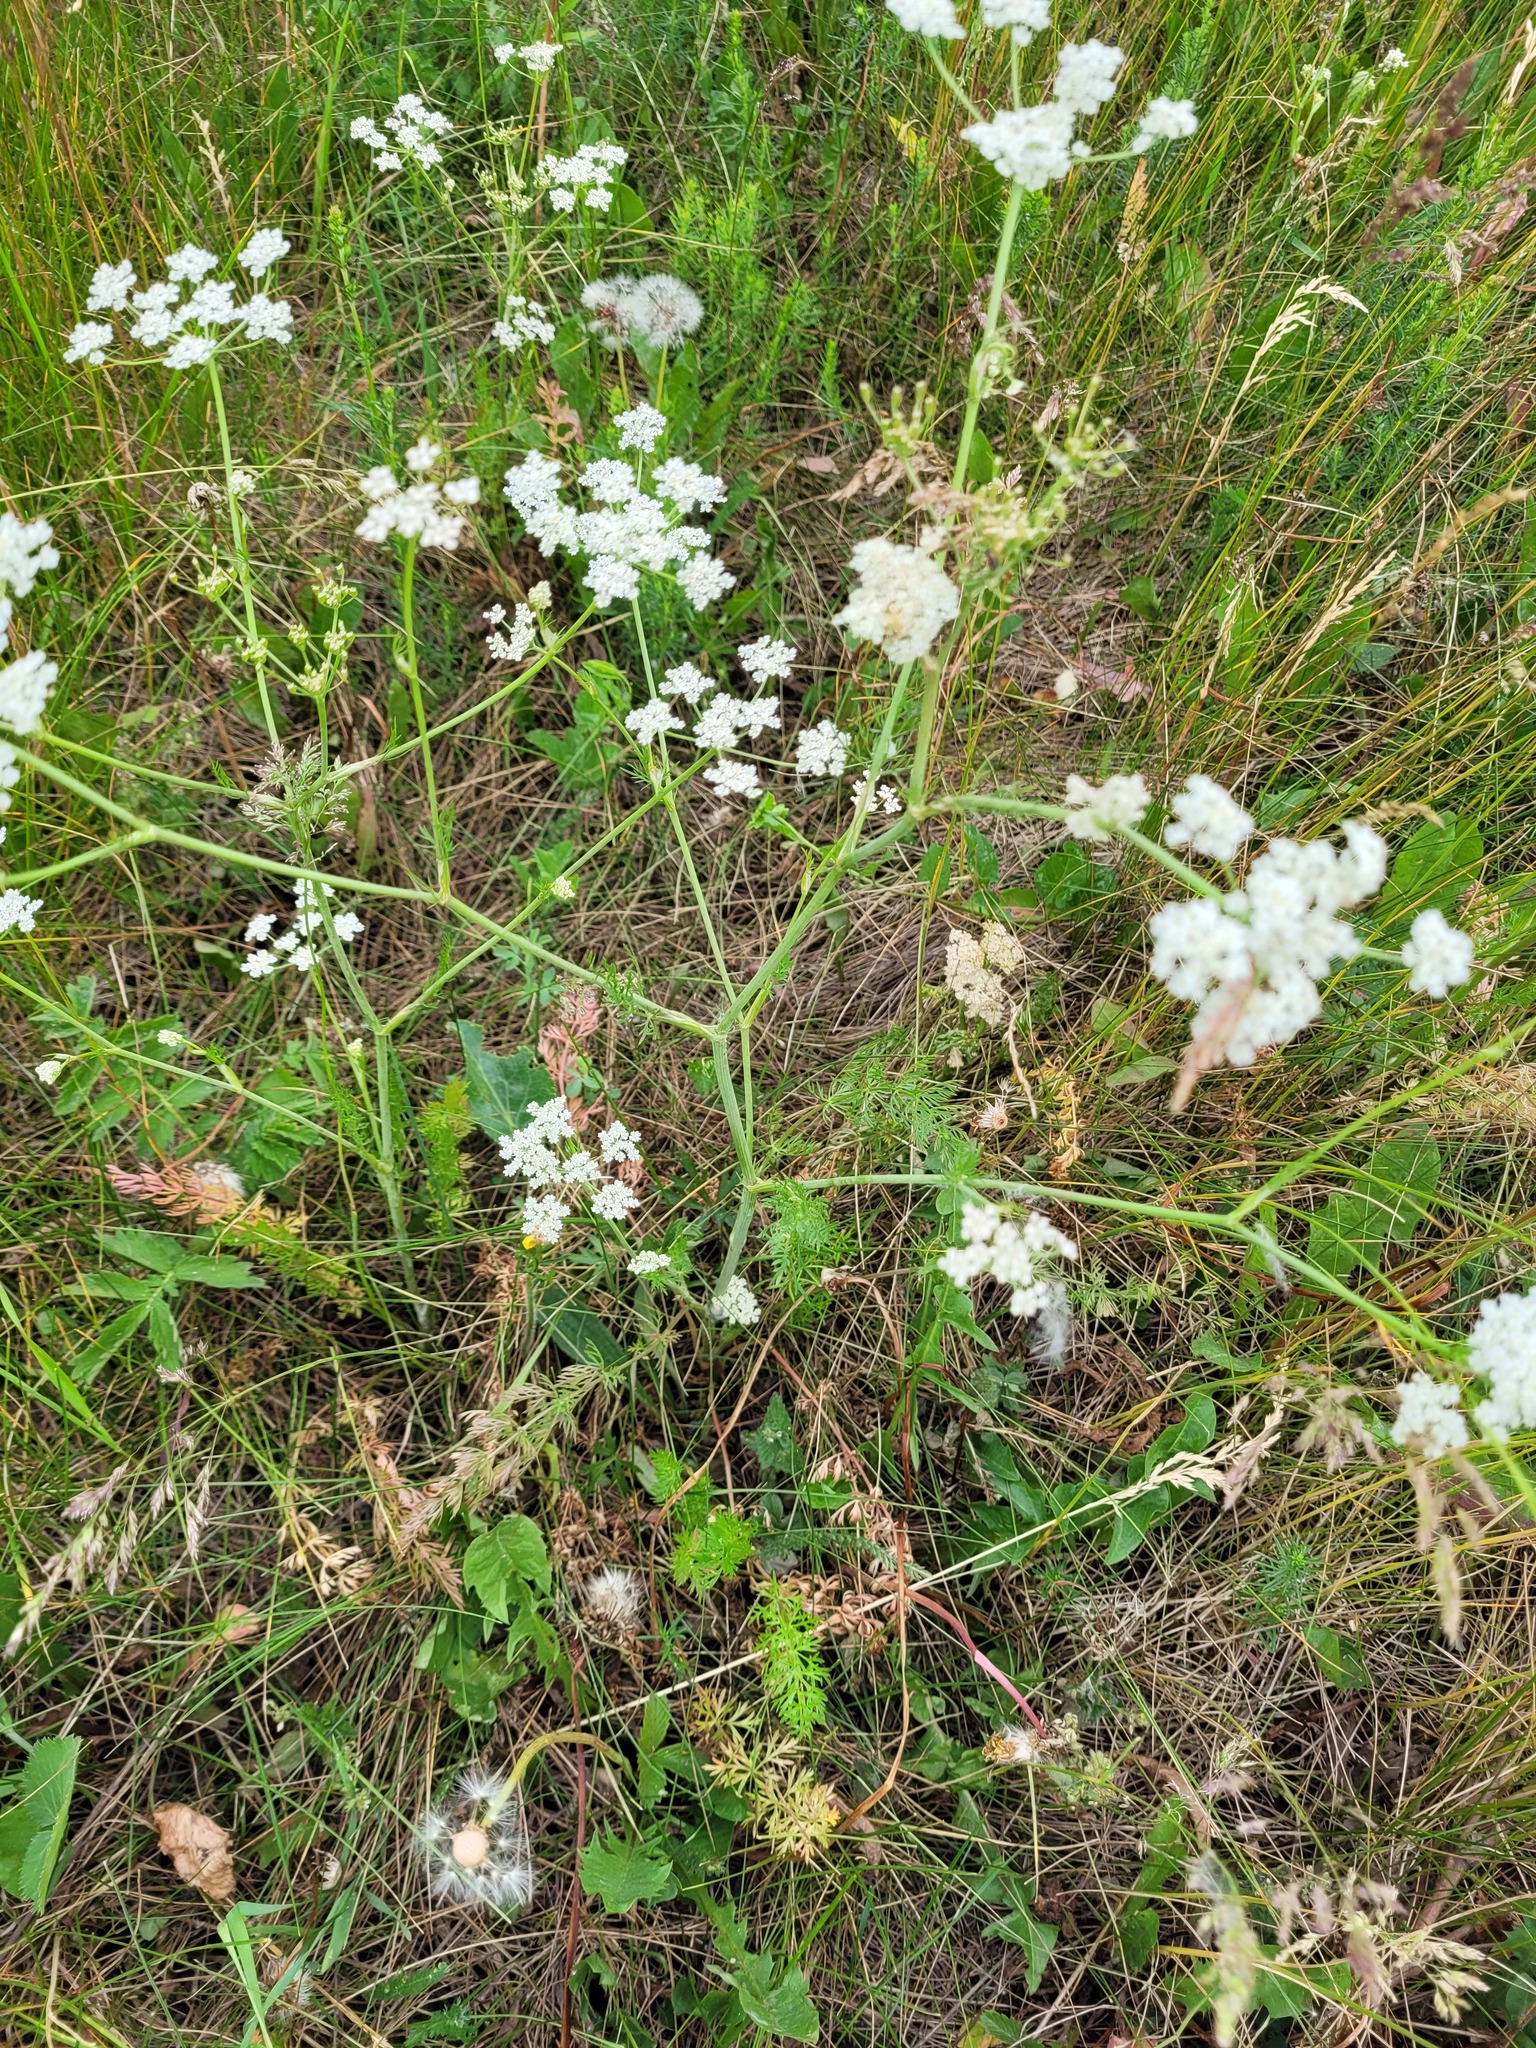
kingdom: Plantae
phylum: Tracheophyta
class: Magnoliopsida
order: Apiales
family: Apiaceae
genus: Carum
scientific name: Carum carvi
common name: Caraway
